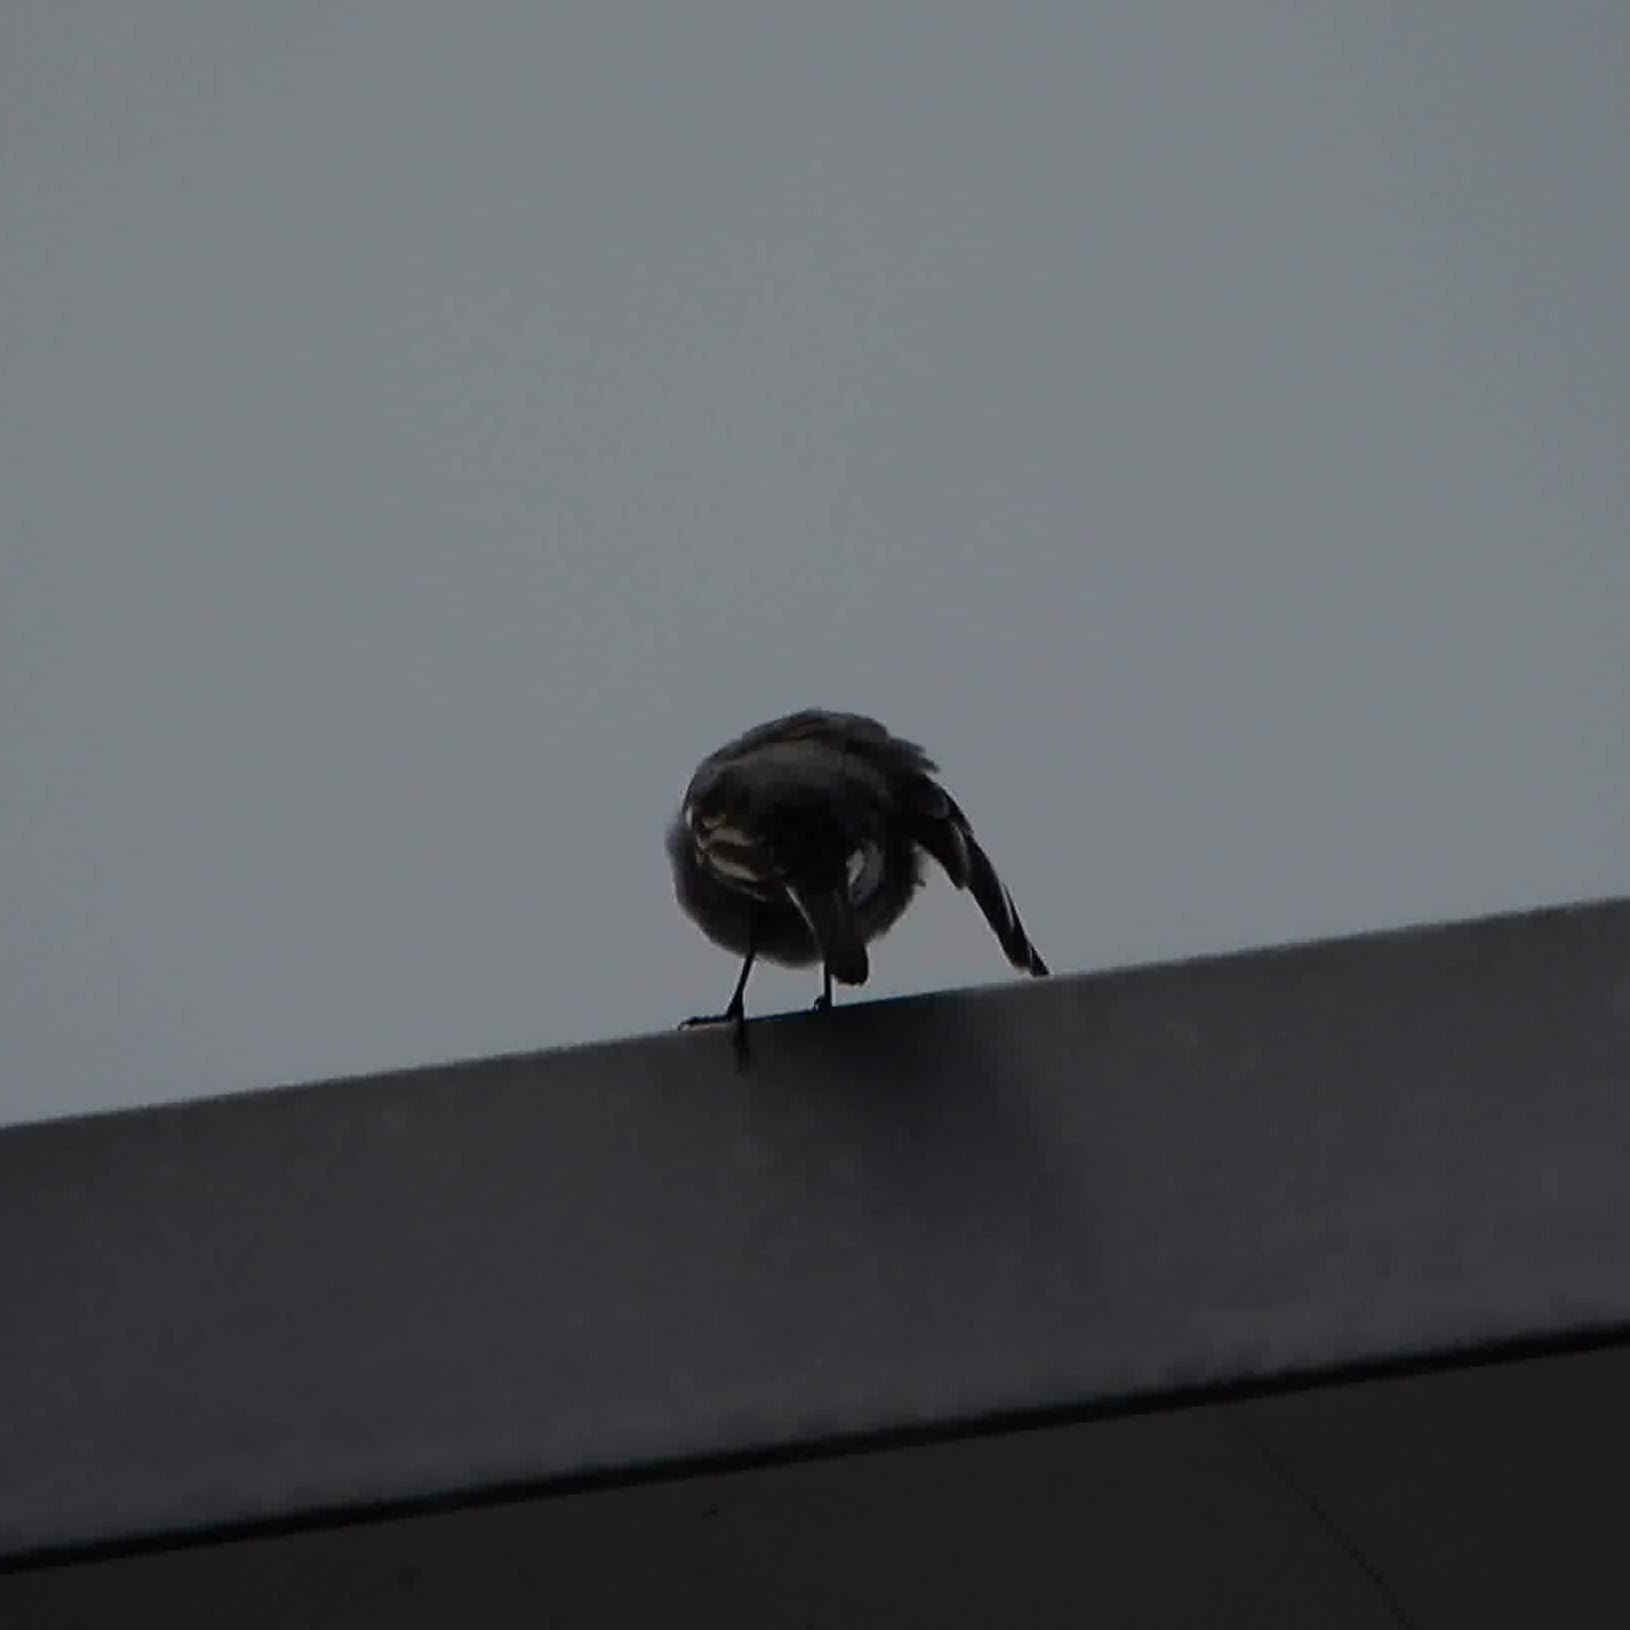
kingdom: Animalia
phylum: Chordata
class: Aves
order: Passeriformes
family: Motacillidae
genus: Motacilla
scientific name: Motacilla alba
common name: White wagtail
